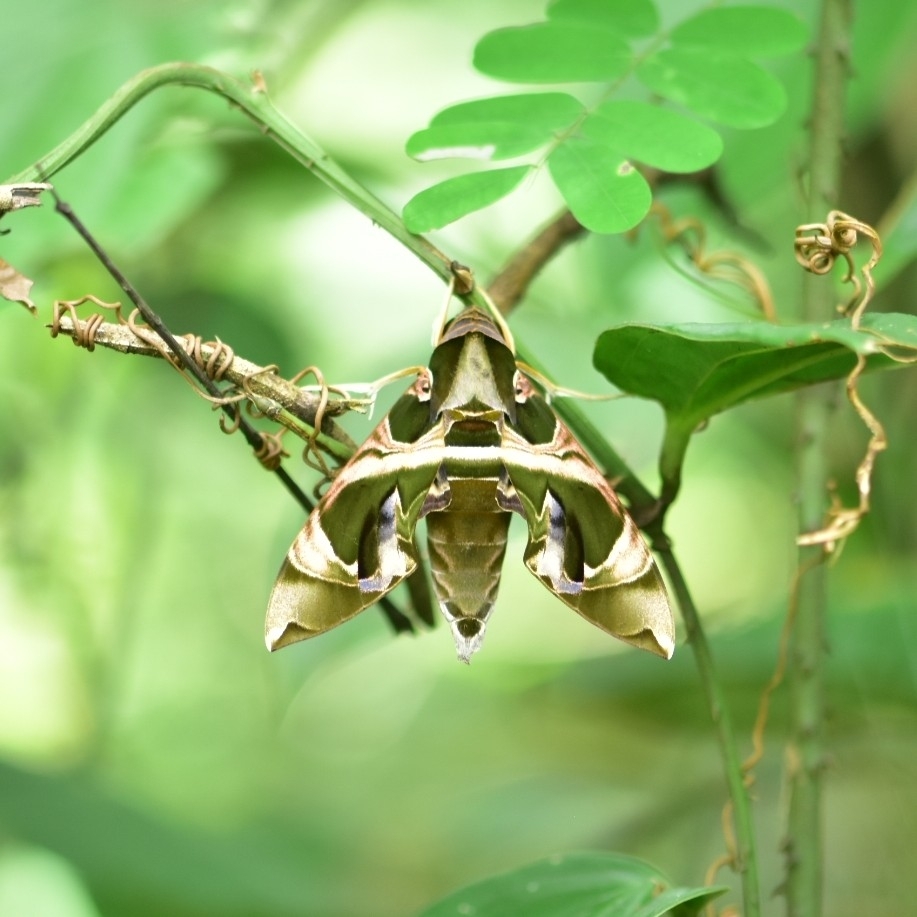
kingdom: Animalia
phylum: Arthropoda
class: Insecta
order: Lepidoptera
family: Sphingidae
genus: Daphnis
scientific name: Daphnis hypothous
